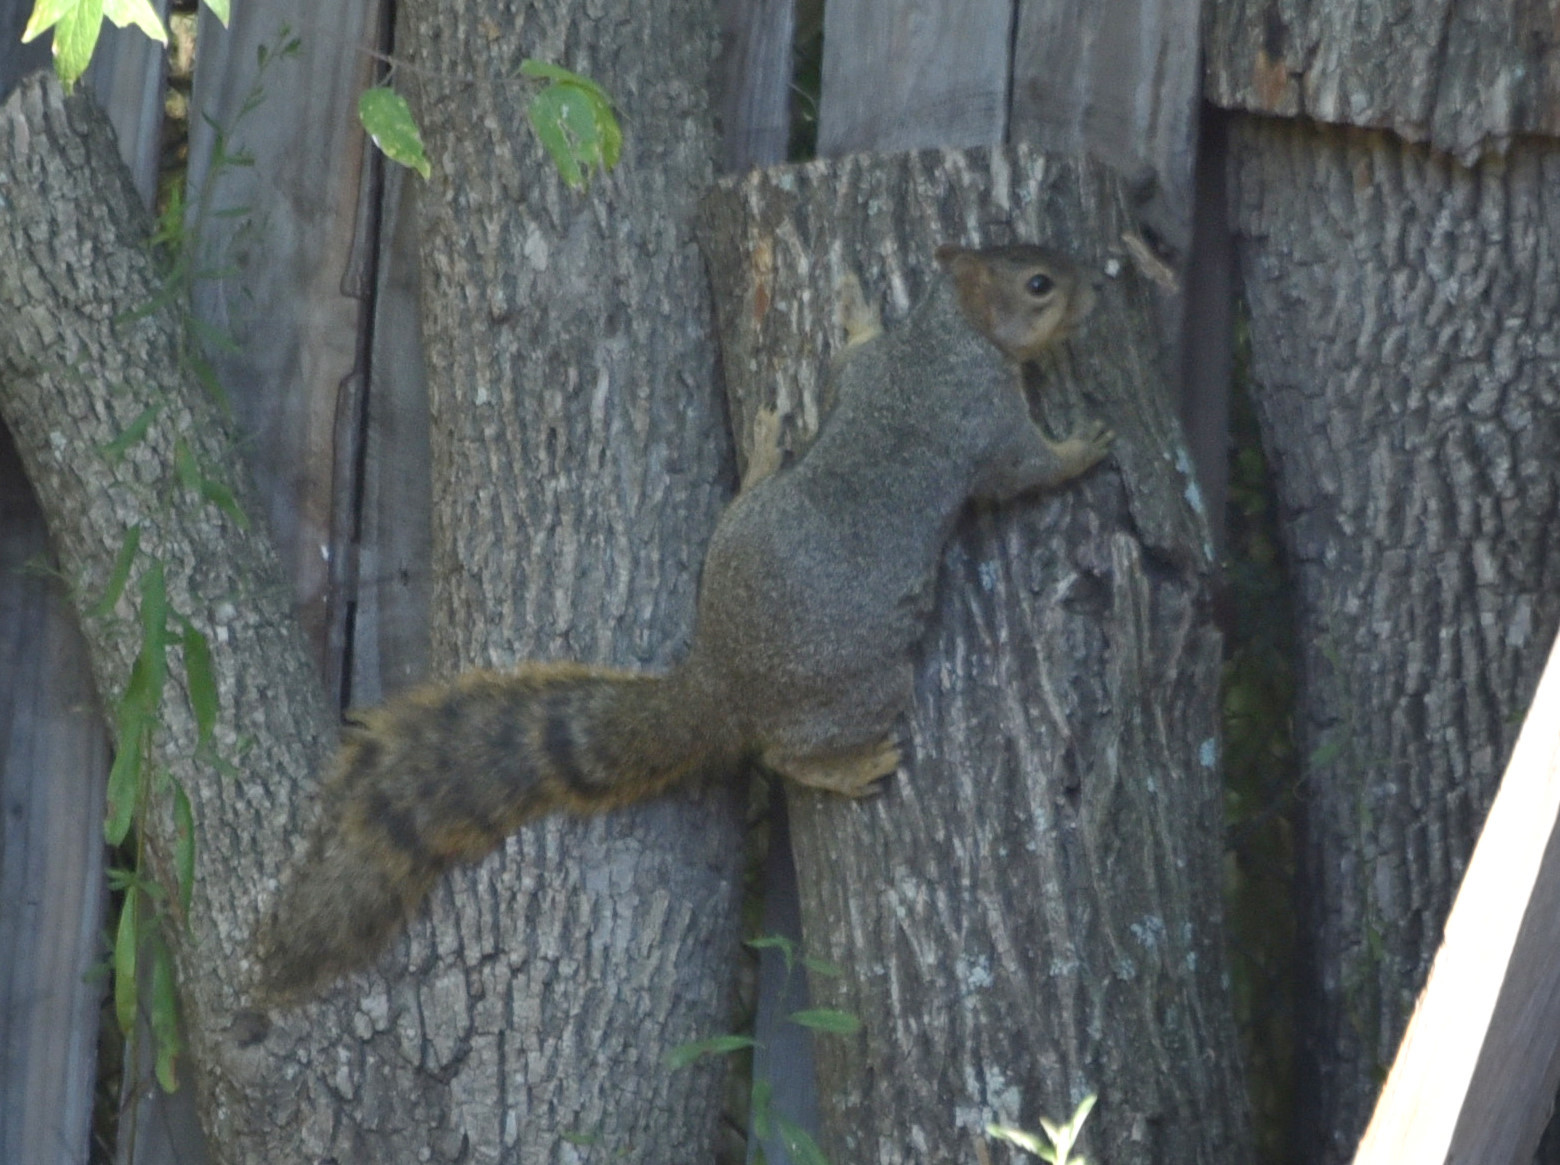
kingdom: Animalia
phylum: Chordata
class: Mammalia
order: Rodentia
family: Sciuridae
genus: Sciurus
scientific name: Sciurus niger
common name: Fox squirrel
